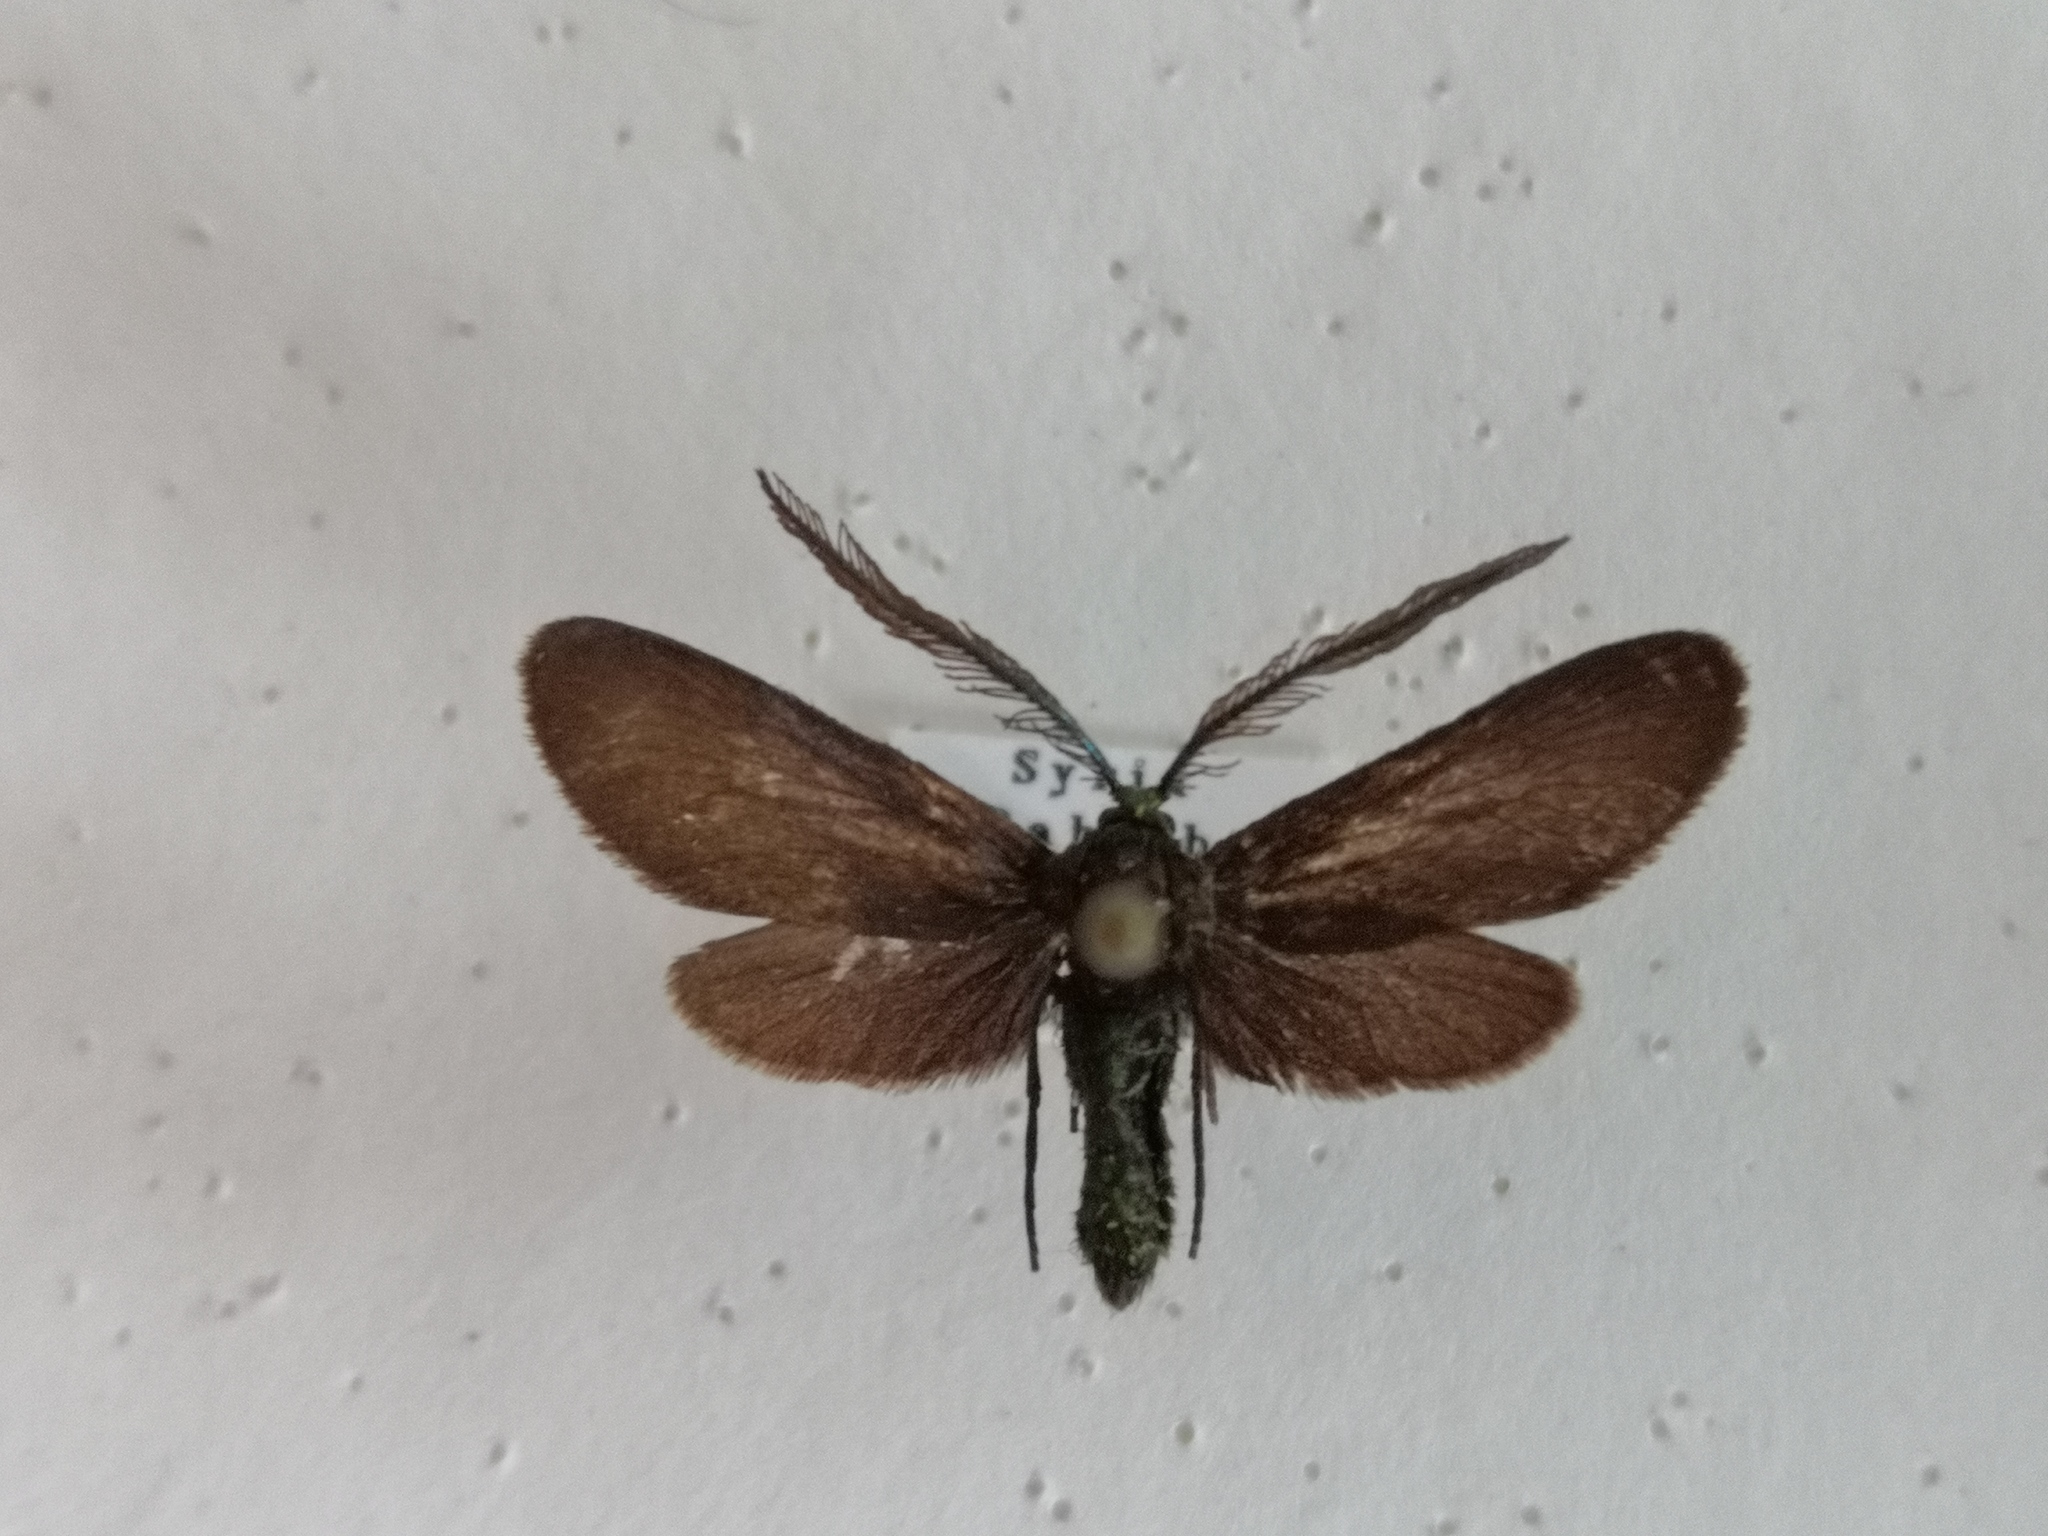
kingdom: Animalia
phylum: Arthropoda
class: Insecta
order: Lepidoptera
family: Zygaenidae
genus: Theresimima
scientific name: Theresimima ampellophaga
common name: Vine bud moth
